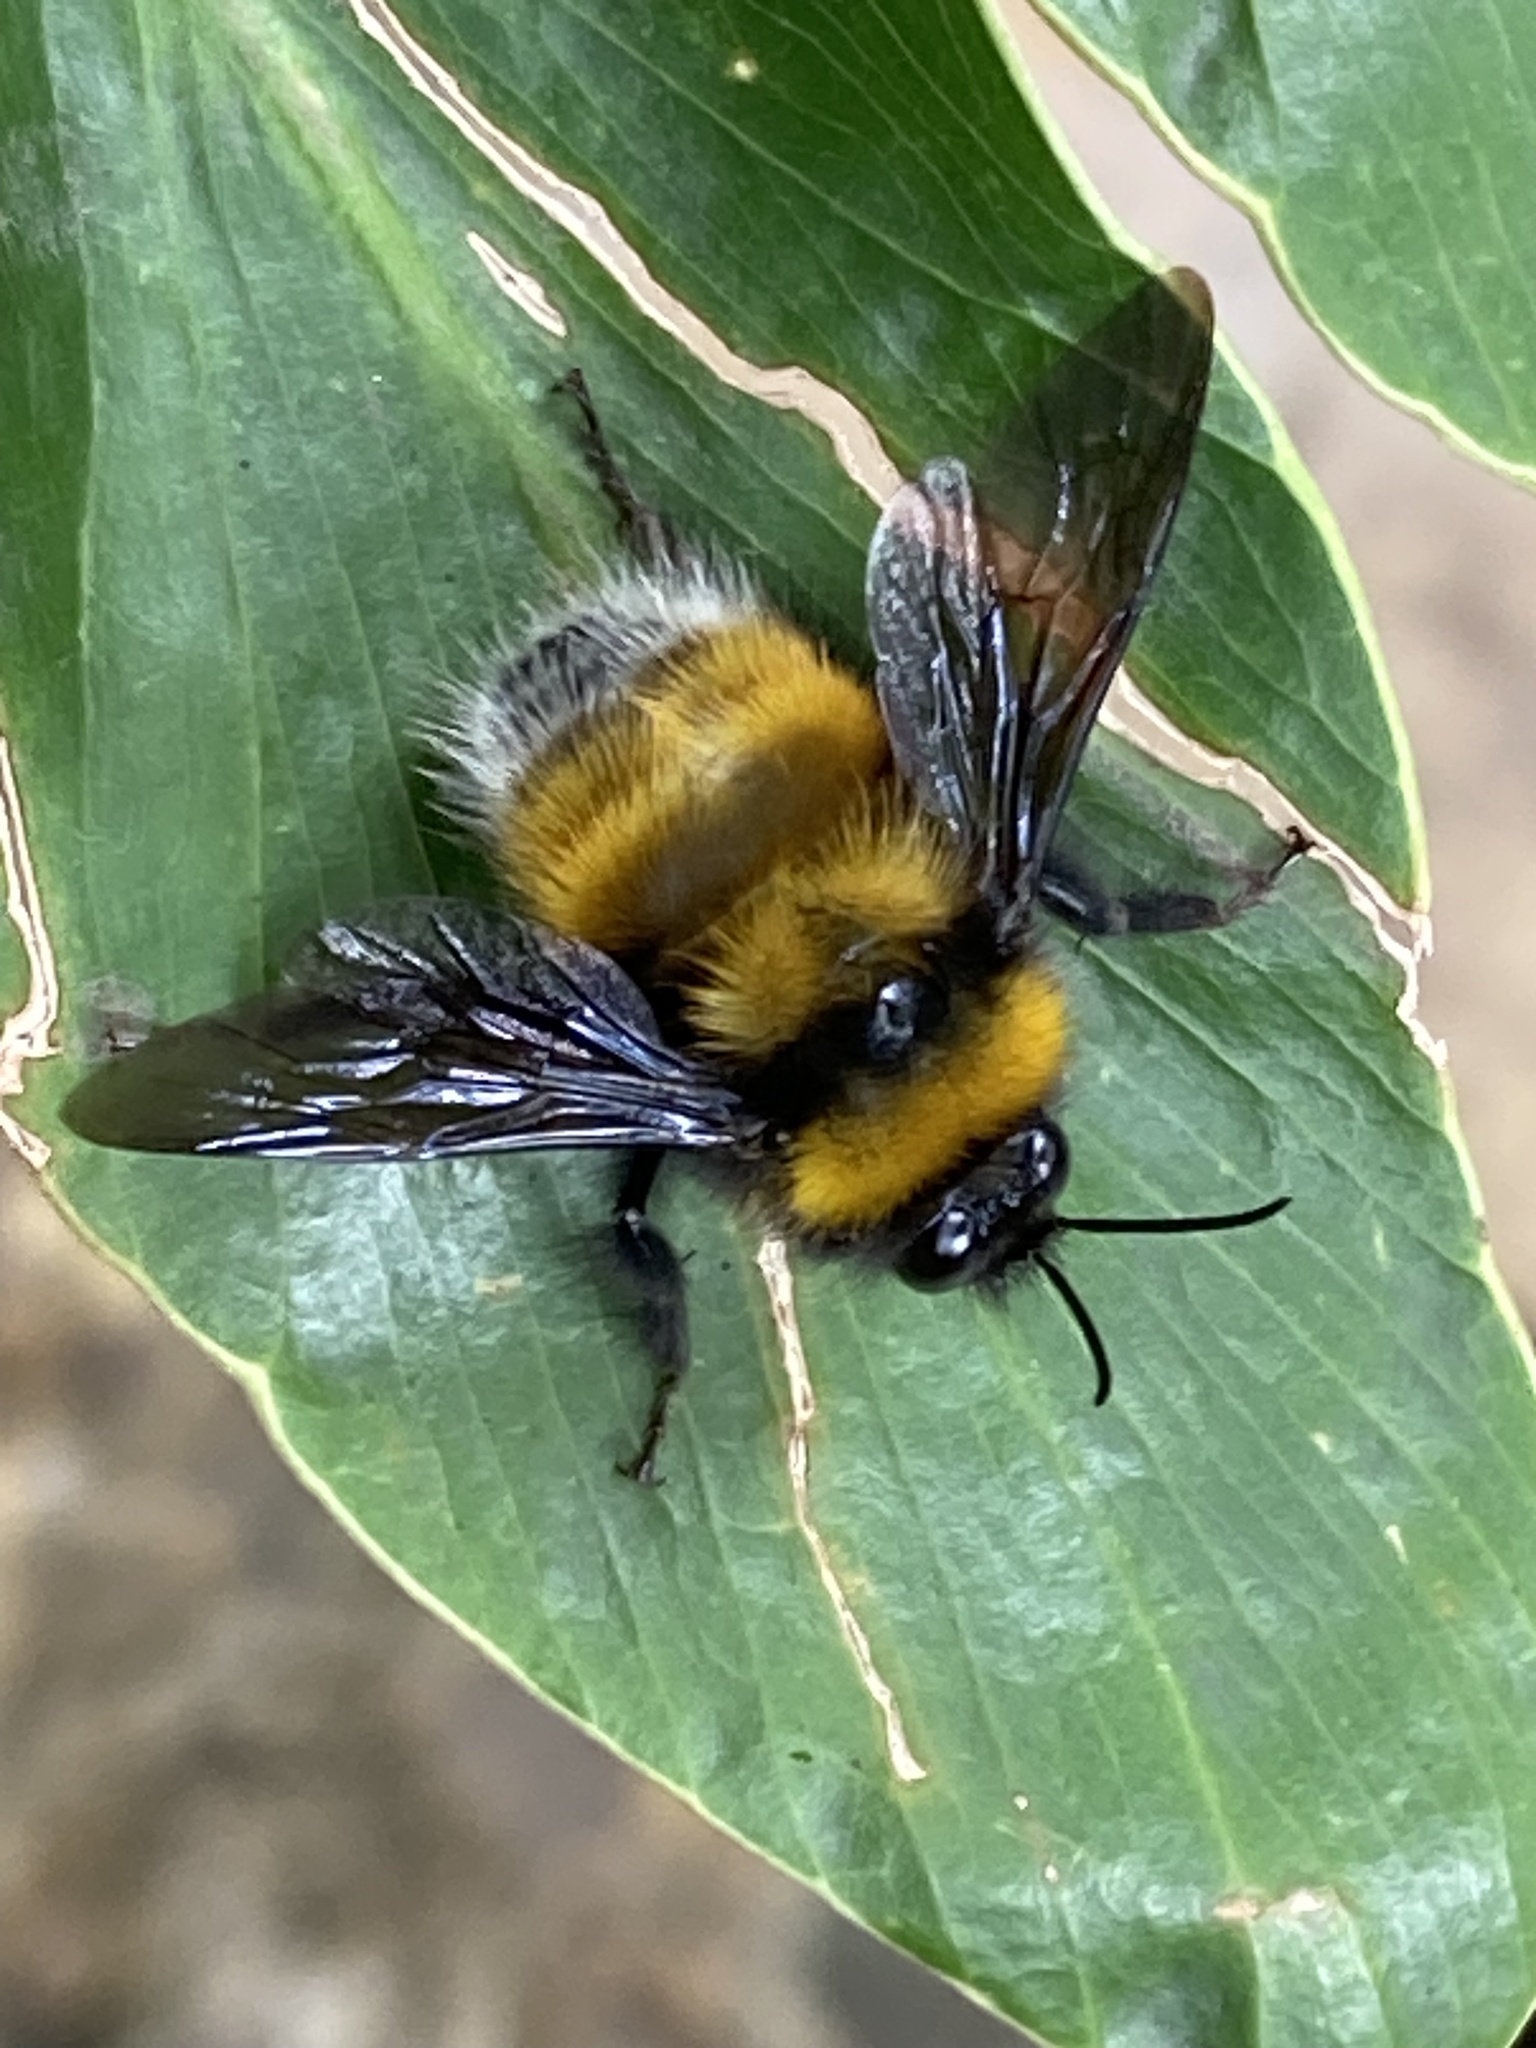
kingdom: Animalia
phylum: Arthropoda
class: Insecta
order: Hymenoptera
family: Apidae
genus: Bombus
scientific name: Bombus robustus
